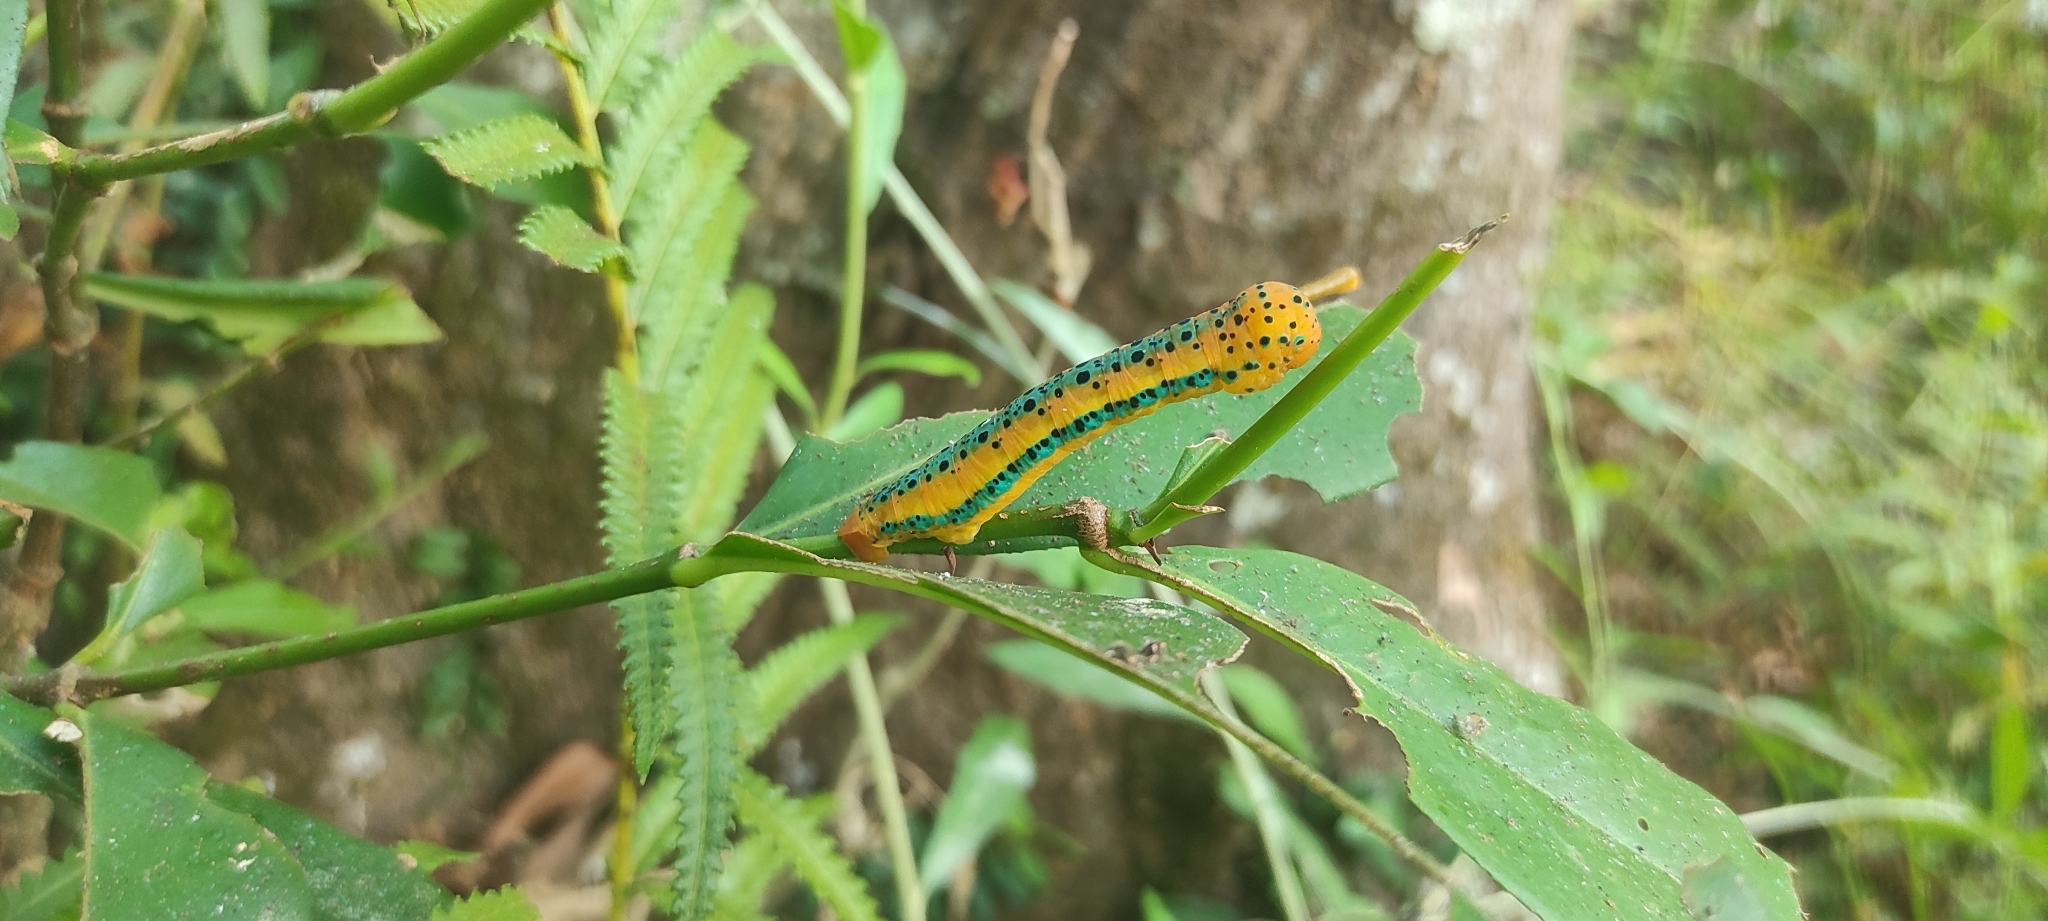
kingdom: Animalia
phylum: Arthropoda
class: Insecta
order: Lepidoptera
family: Geometridae
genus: Dysphania
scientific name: Dysphania percota
